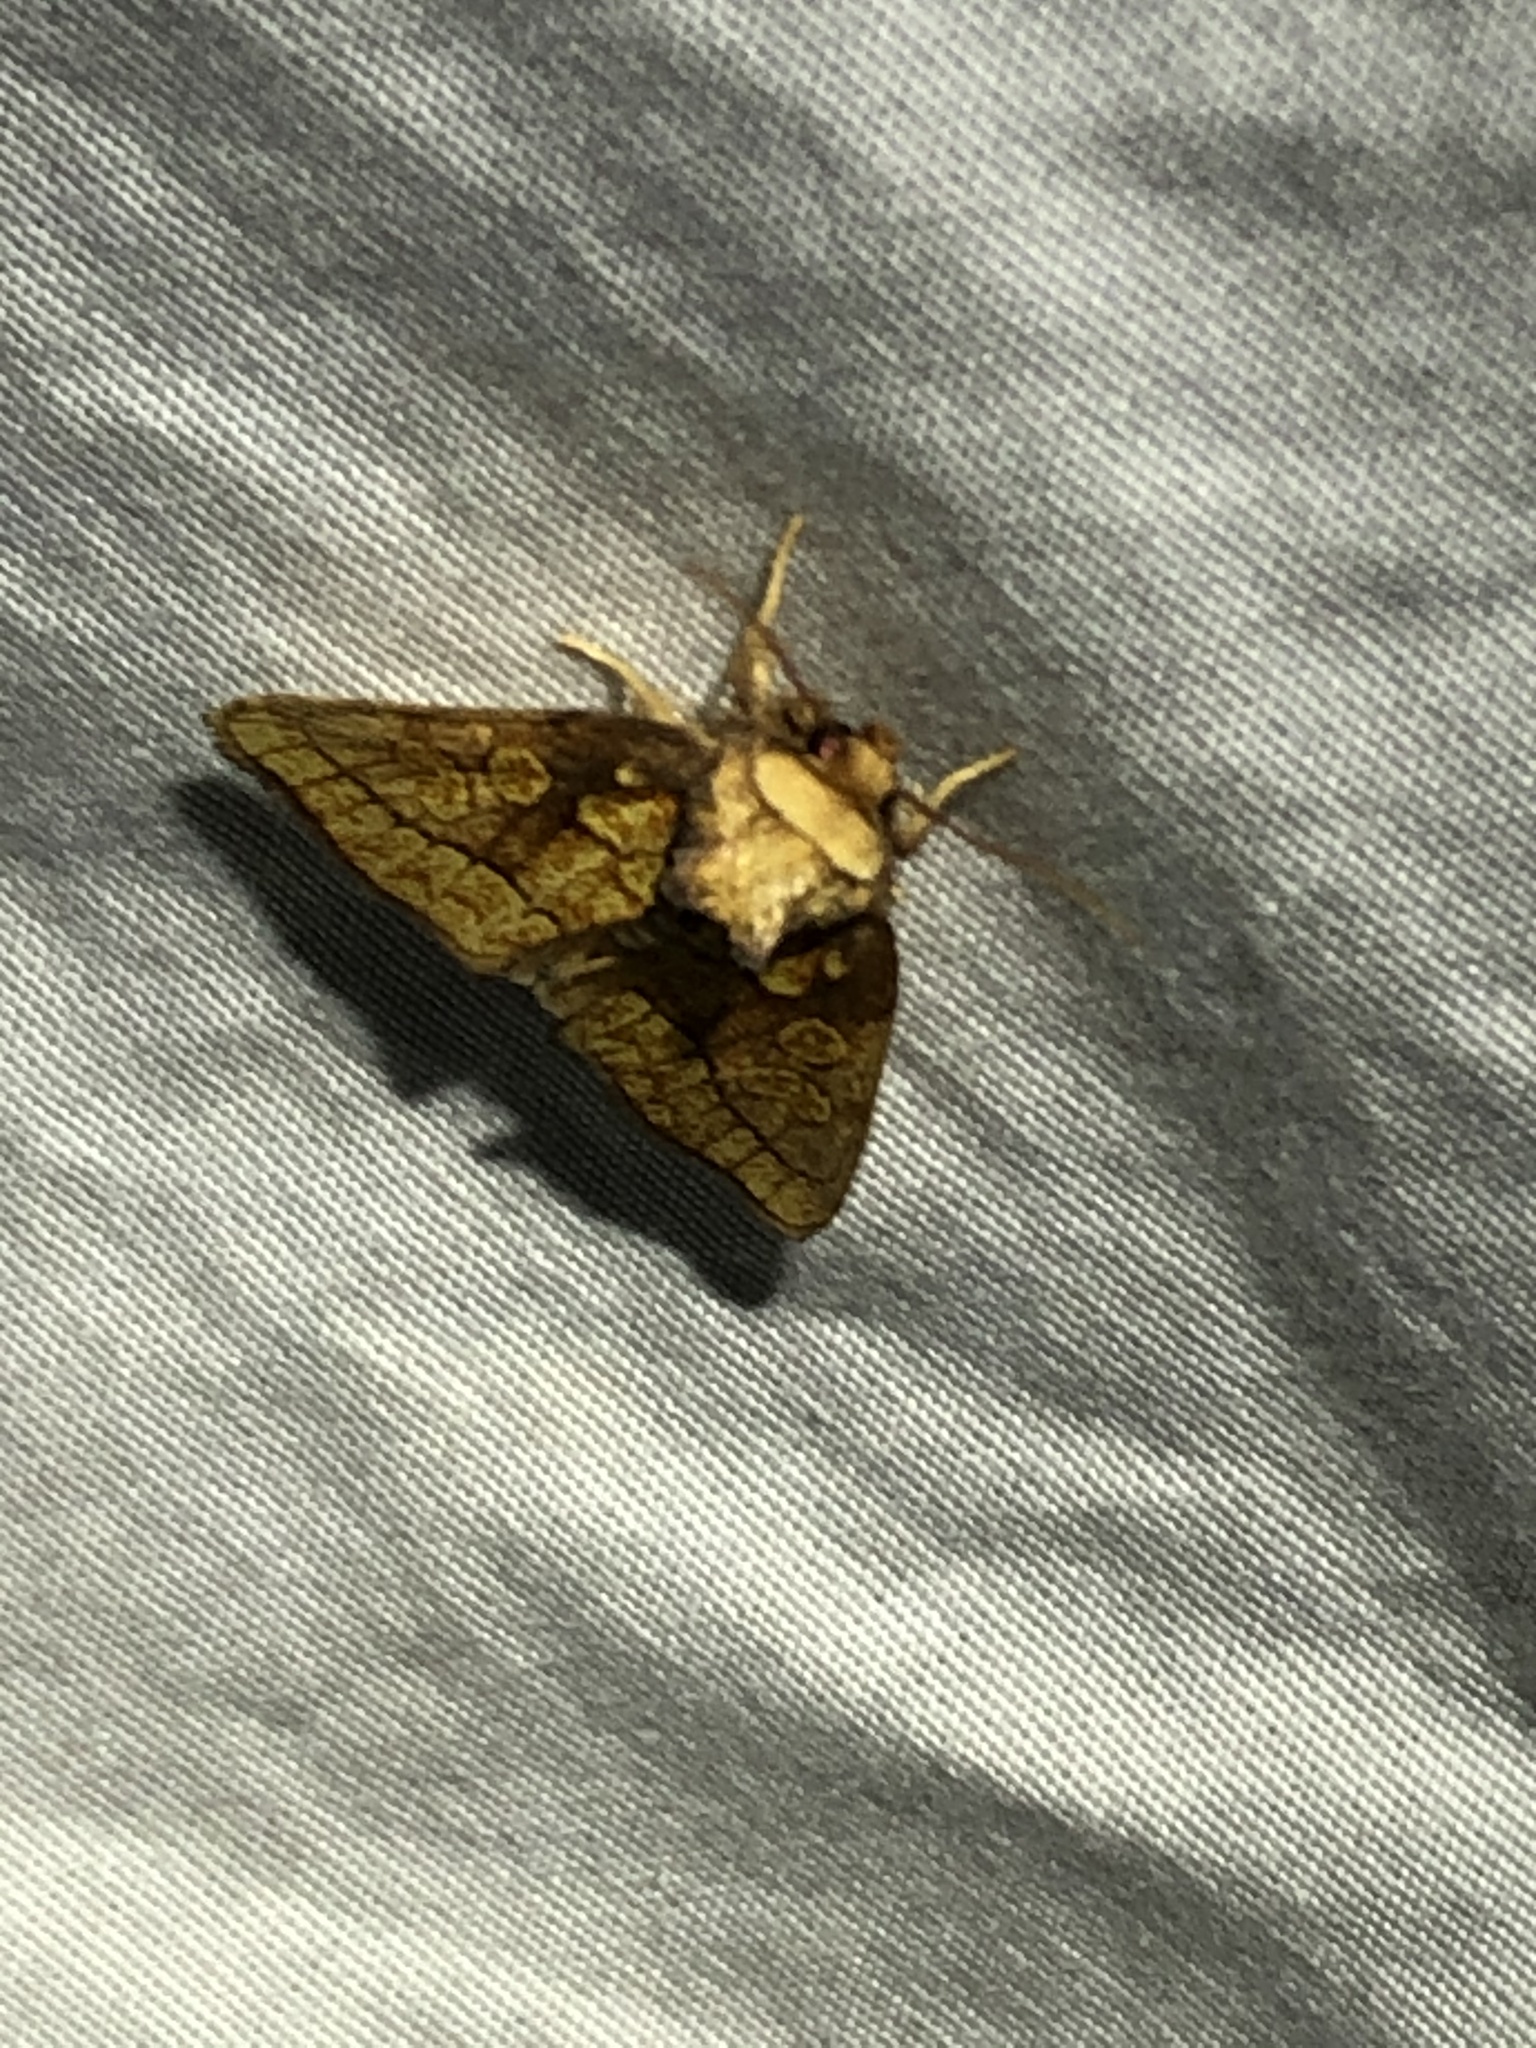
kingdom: Animalia
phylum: Arthropoda
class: Insecta
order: Lepidoptera
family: Noctuidae
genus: Nocloa
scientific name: Nocloa alcandra
